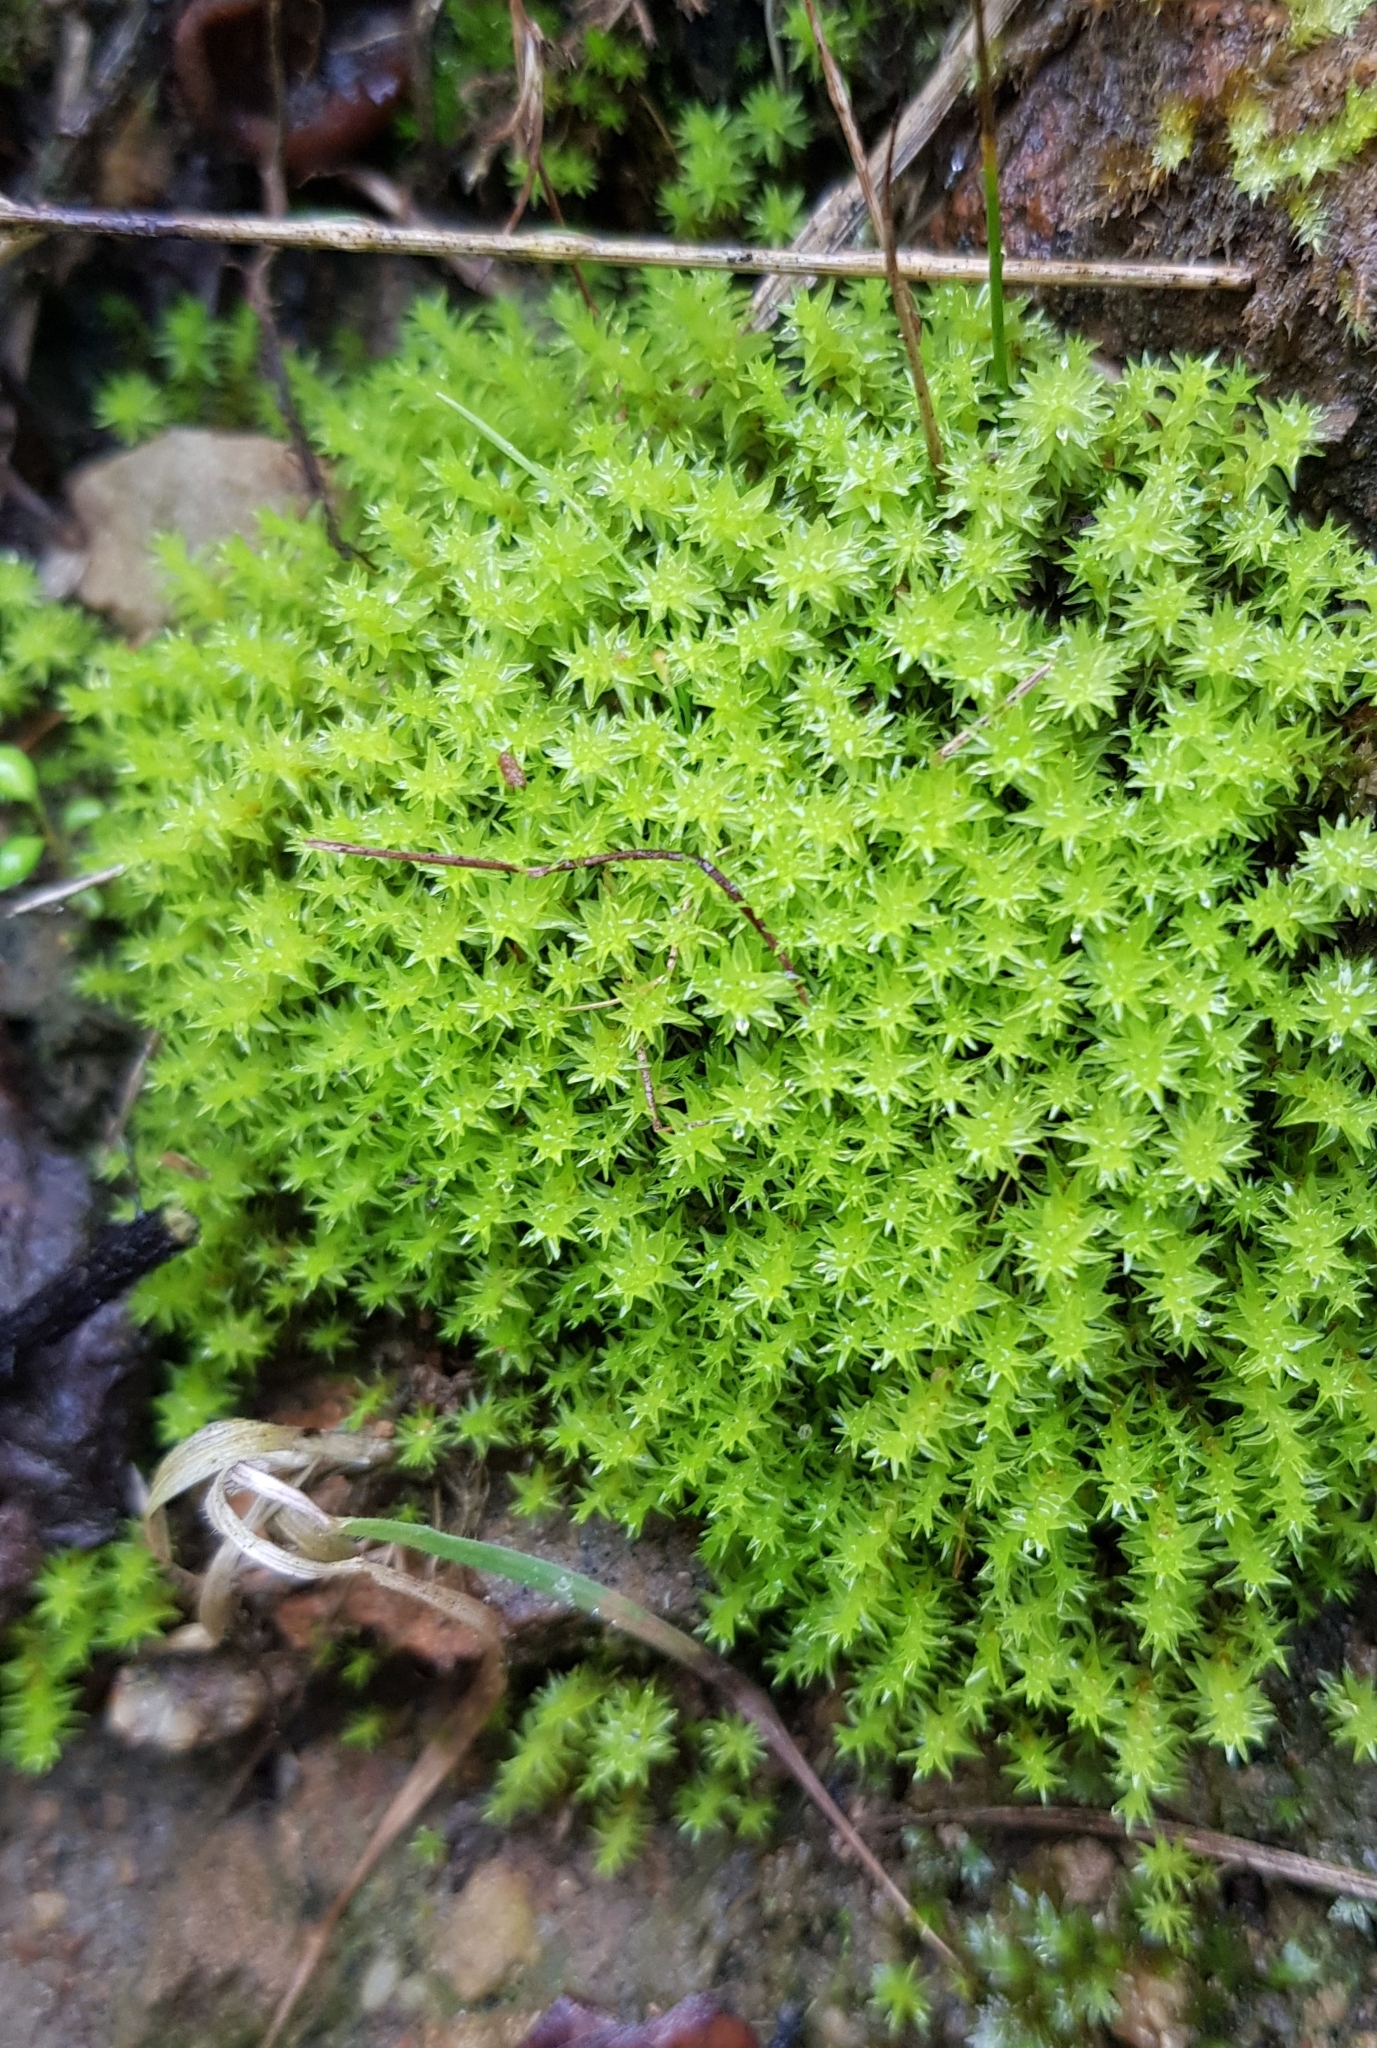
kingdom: Plantae
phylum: Bryophyta
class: Bryopsida
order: Dicranales
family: Aongstroemiaceae
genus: Diobelonella
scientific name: Diobelonella palustris
